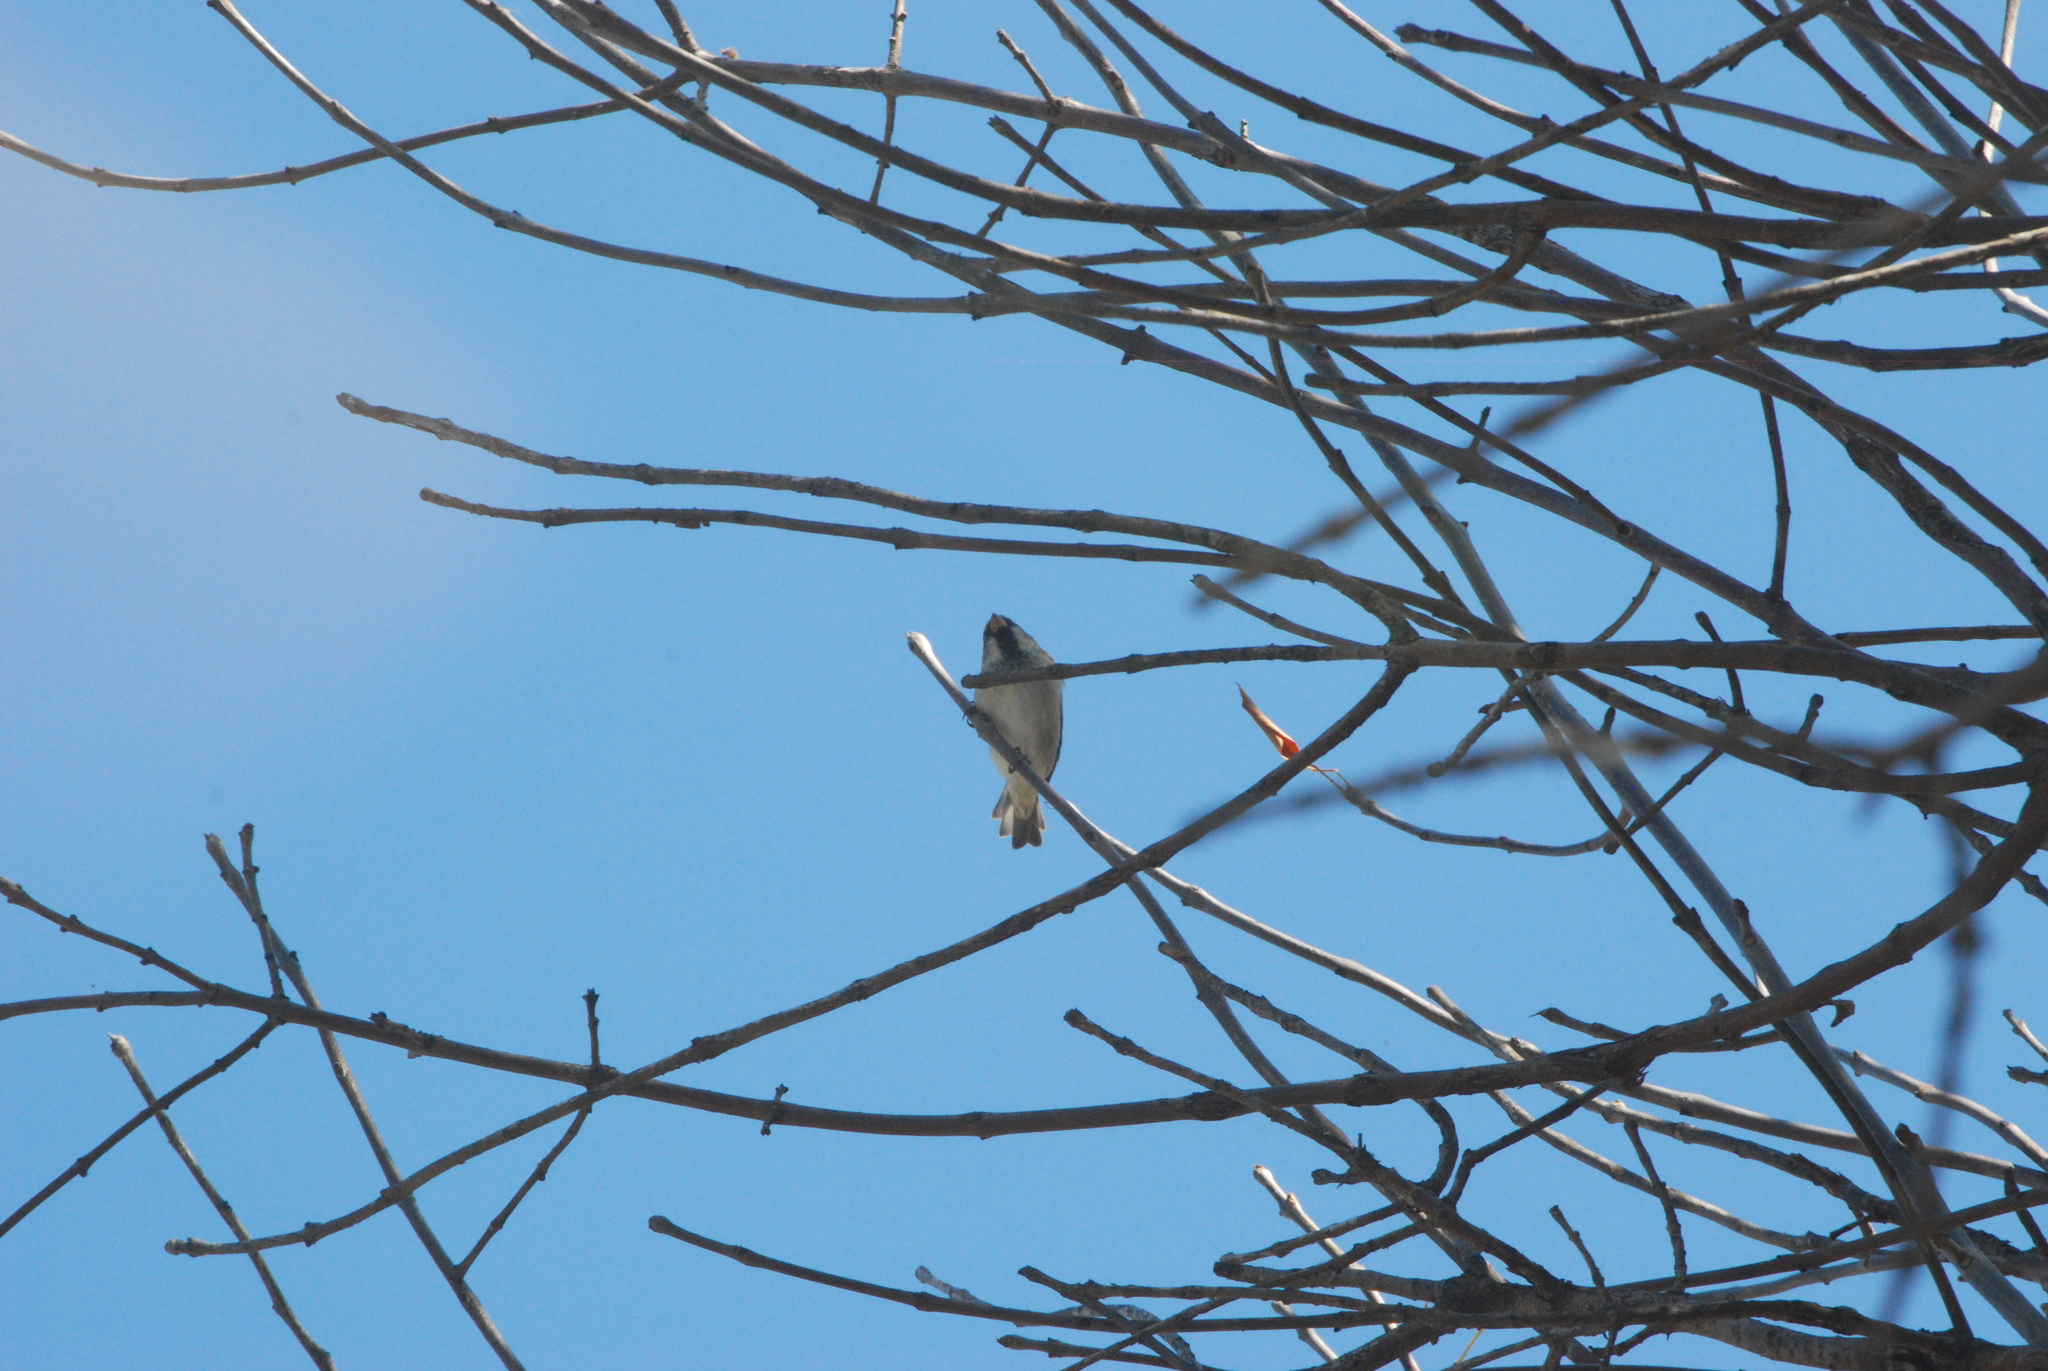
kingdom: Animalia
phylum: Chordata
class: Aves
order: Passeriformes
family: Passeridae
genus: Passer
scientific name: Passer domesticus
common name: House sparrow
